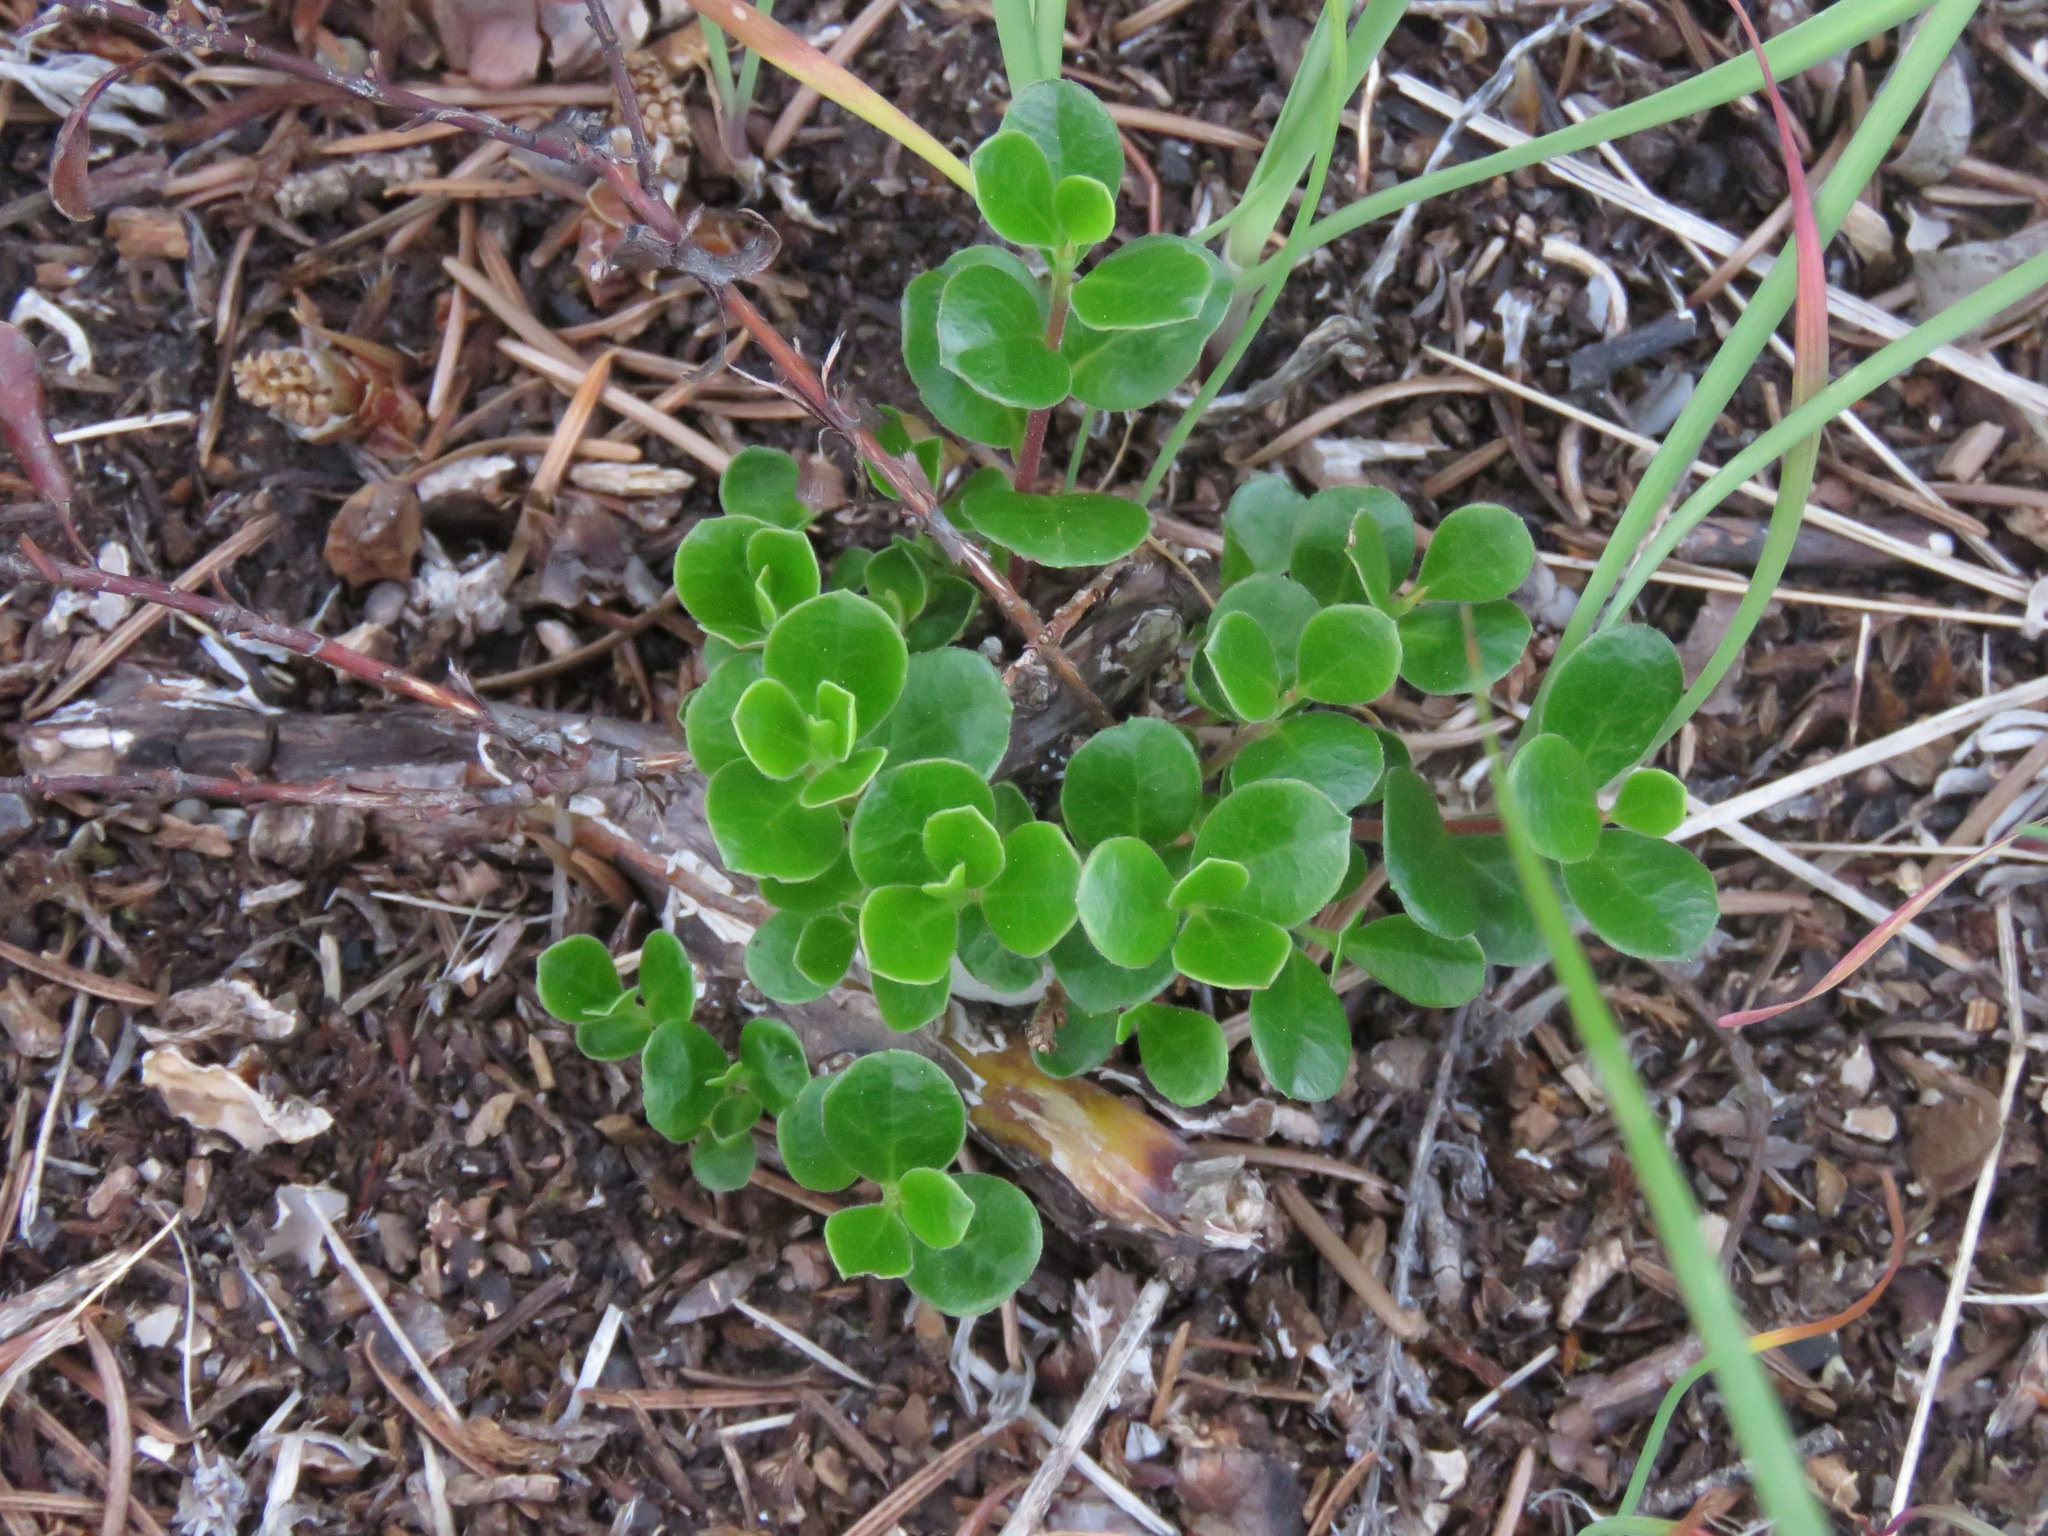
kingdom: Plantae
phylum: Tracheophyta
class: Magnoliopsida
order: Ericales
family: Ericaceae
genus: Arctostaphylos
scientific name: Arctostaphylos uva-ursi
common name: Bearberry
